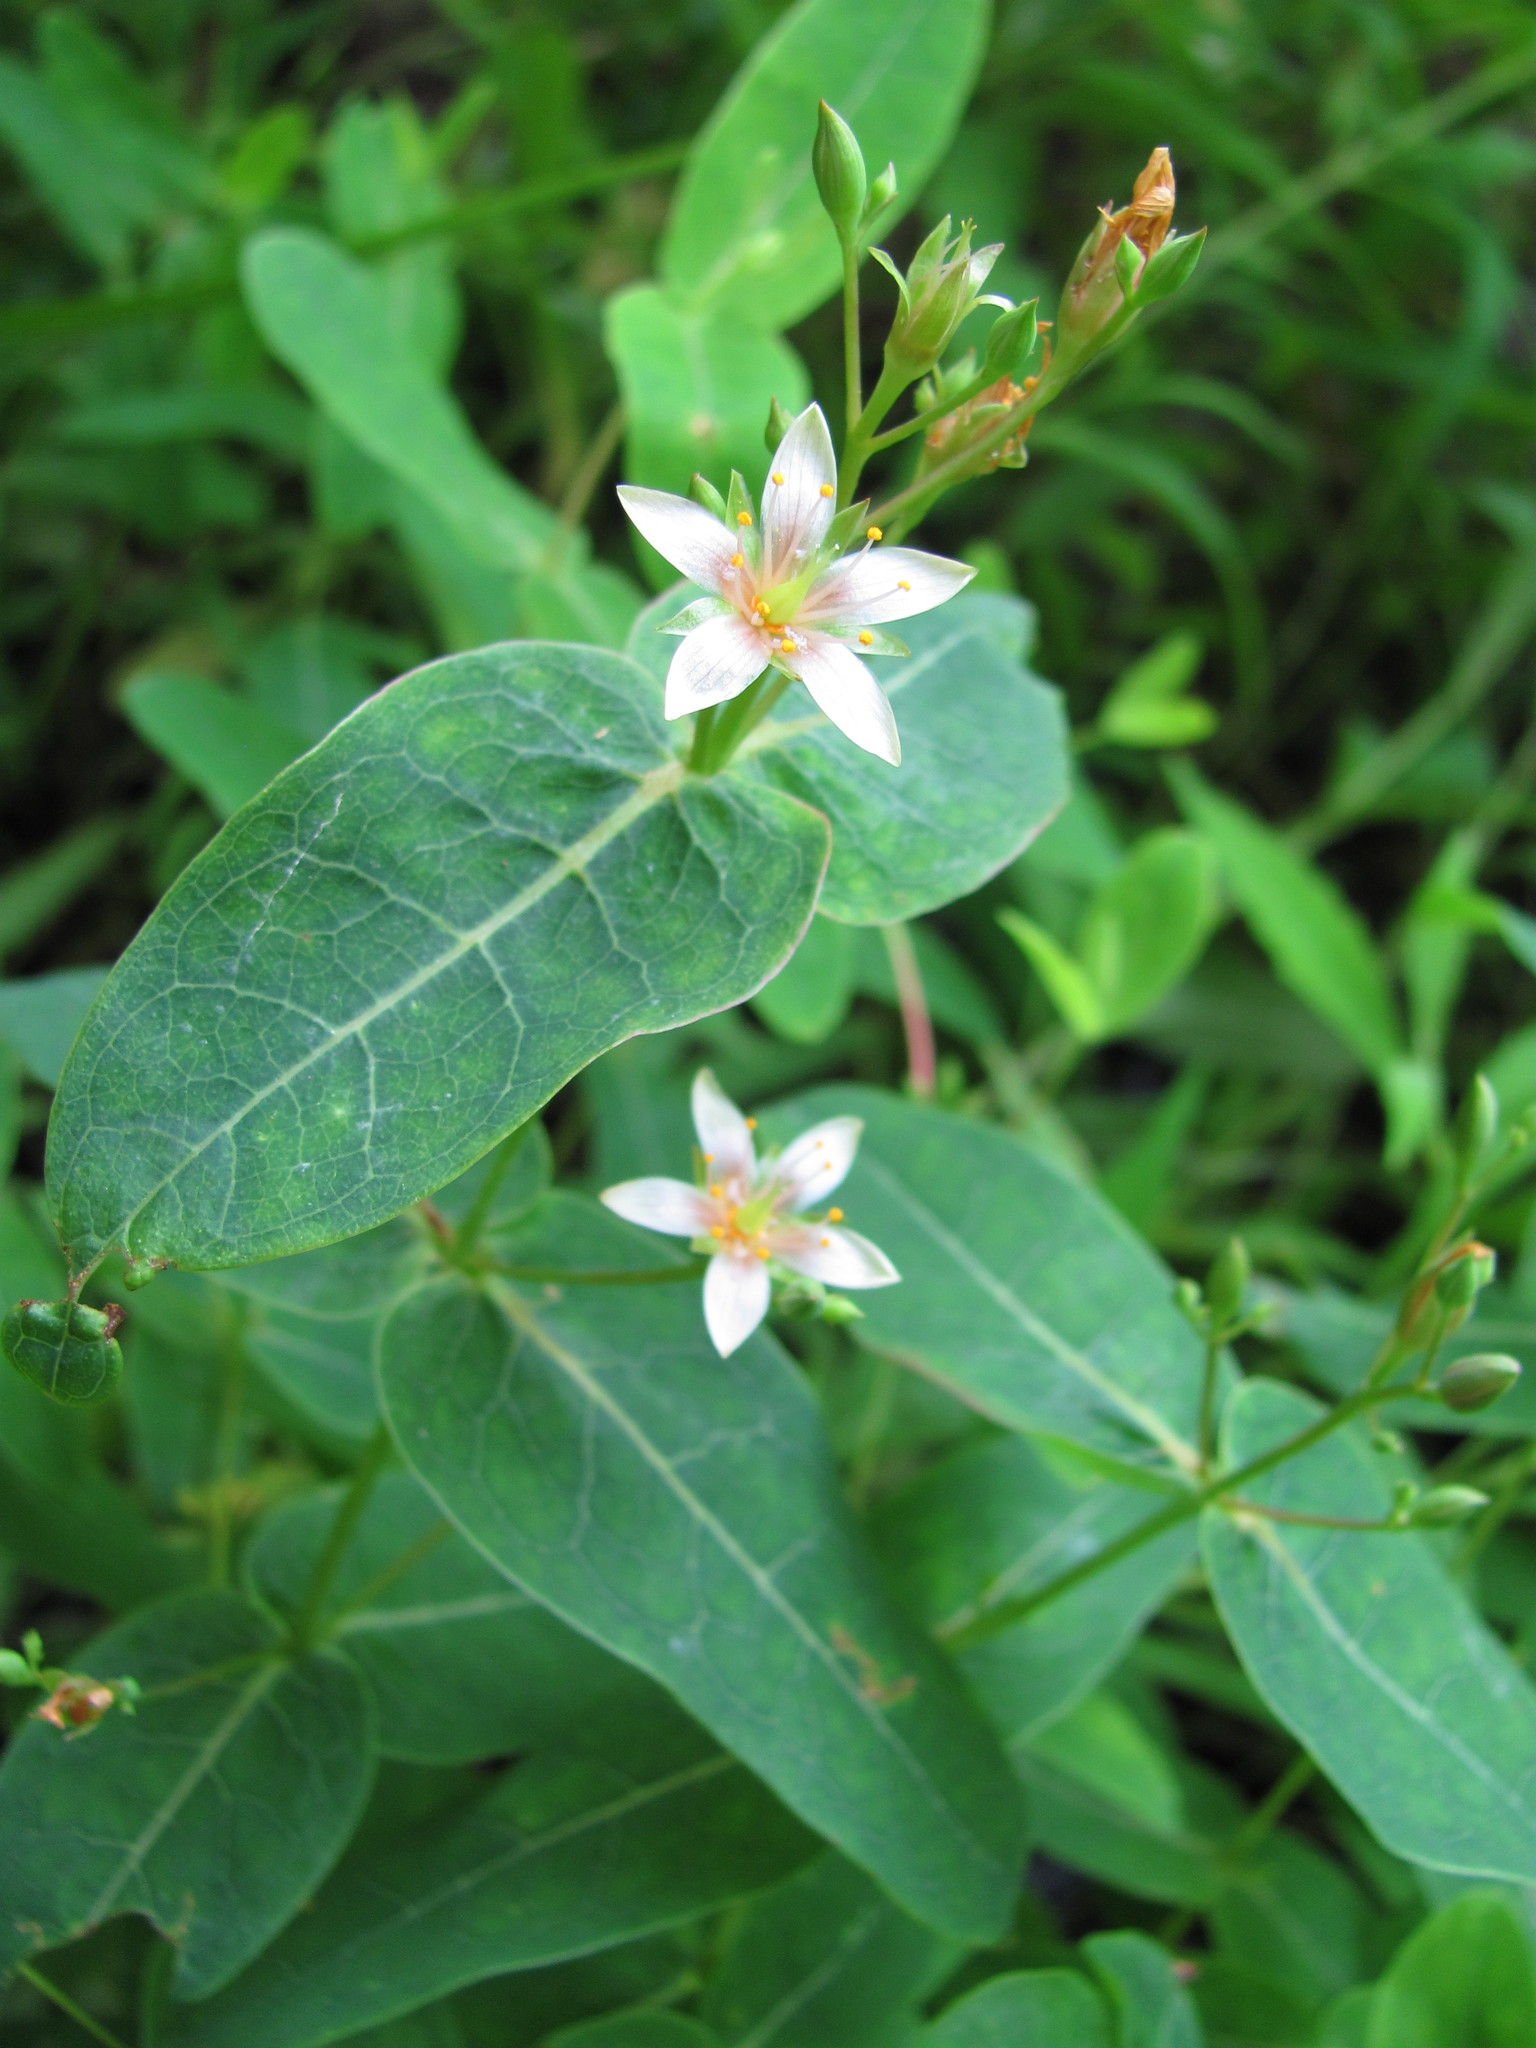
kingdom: Plantae
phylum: Tracheophyta
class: Magnoliopsida
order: Malpighiales
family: Hypericaceae
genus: Triadenum
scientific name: Triadenum virginicum
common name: Marsh st. john's-wort
